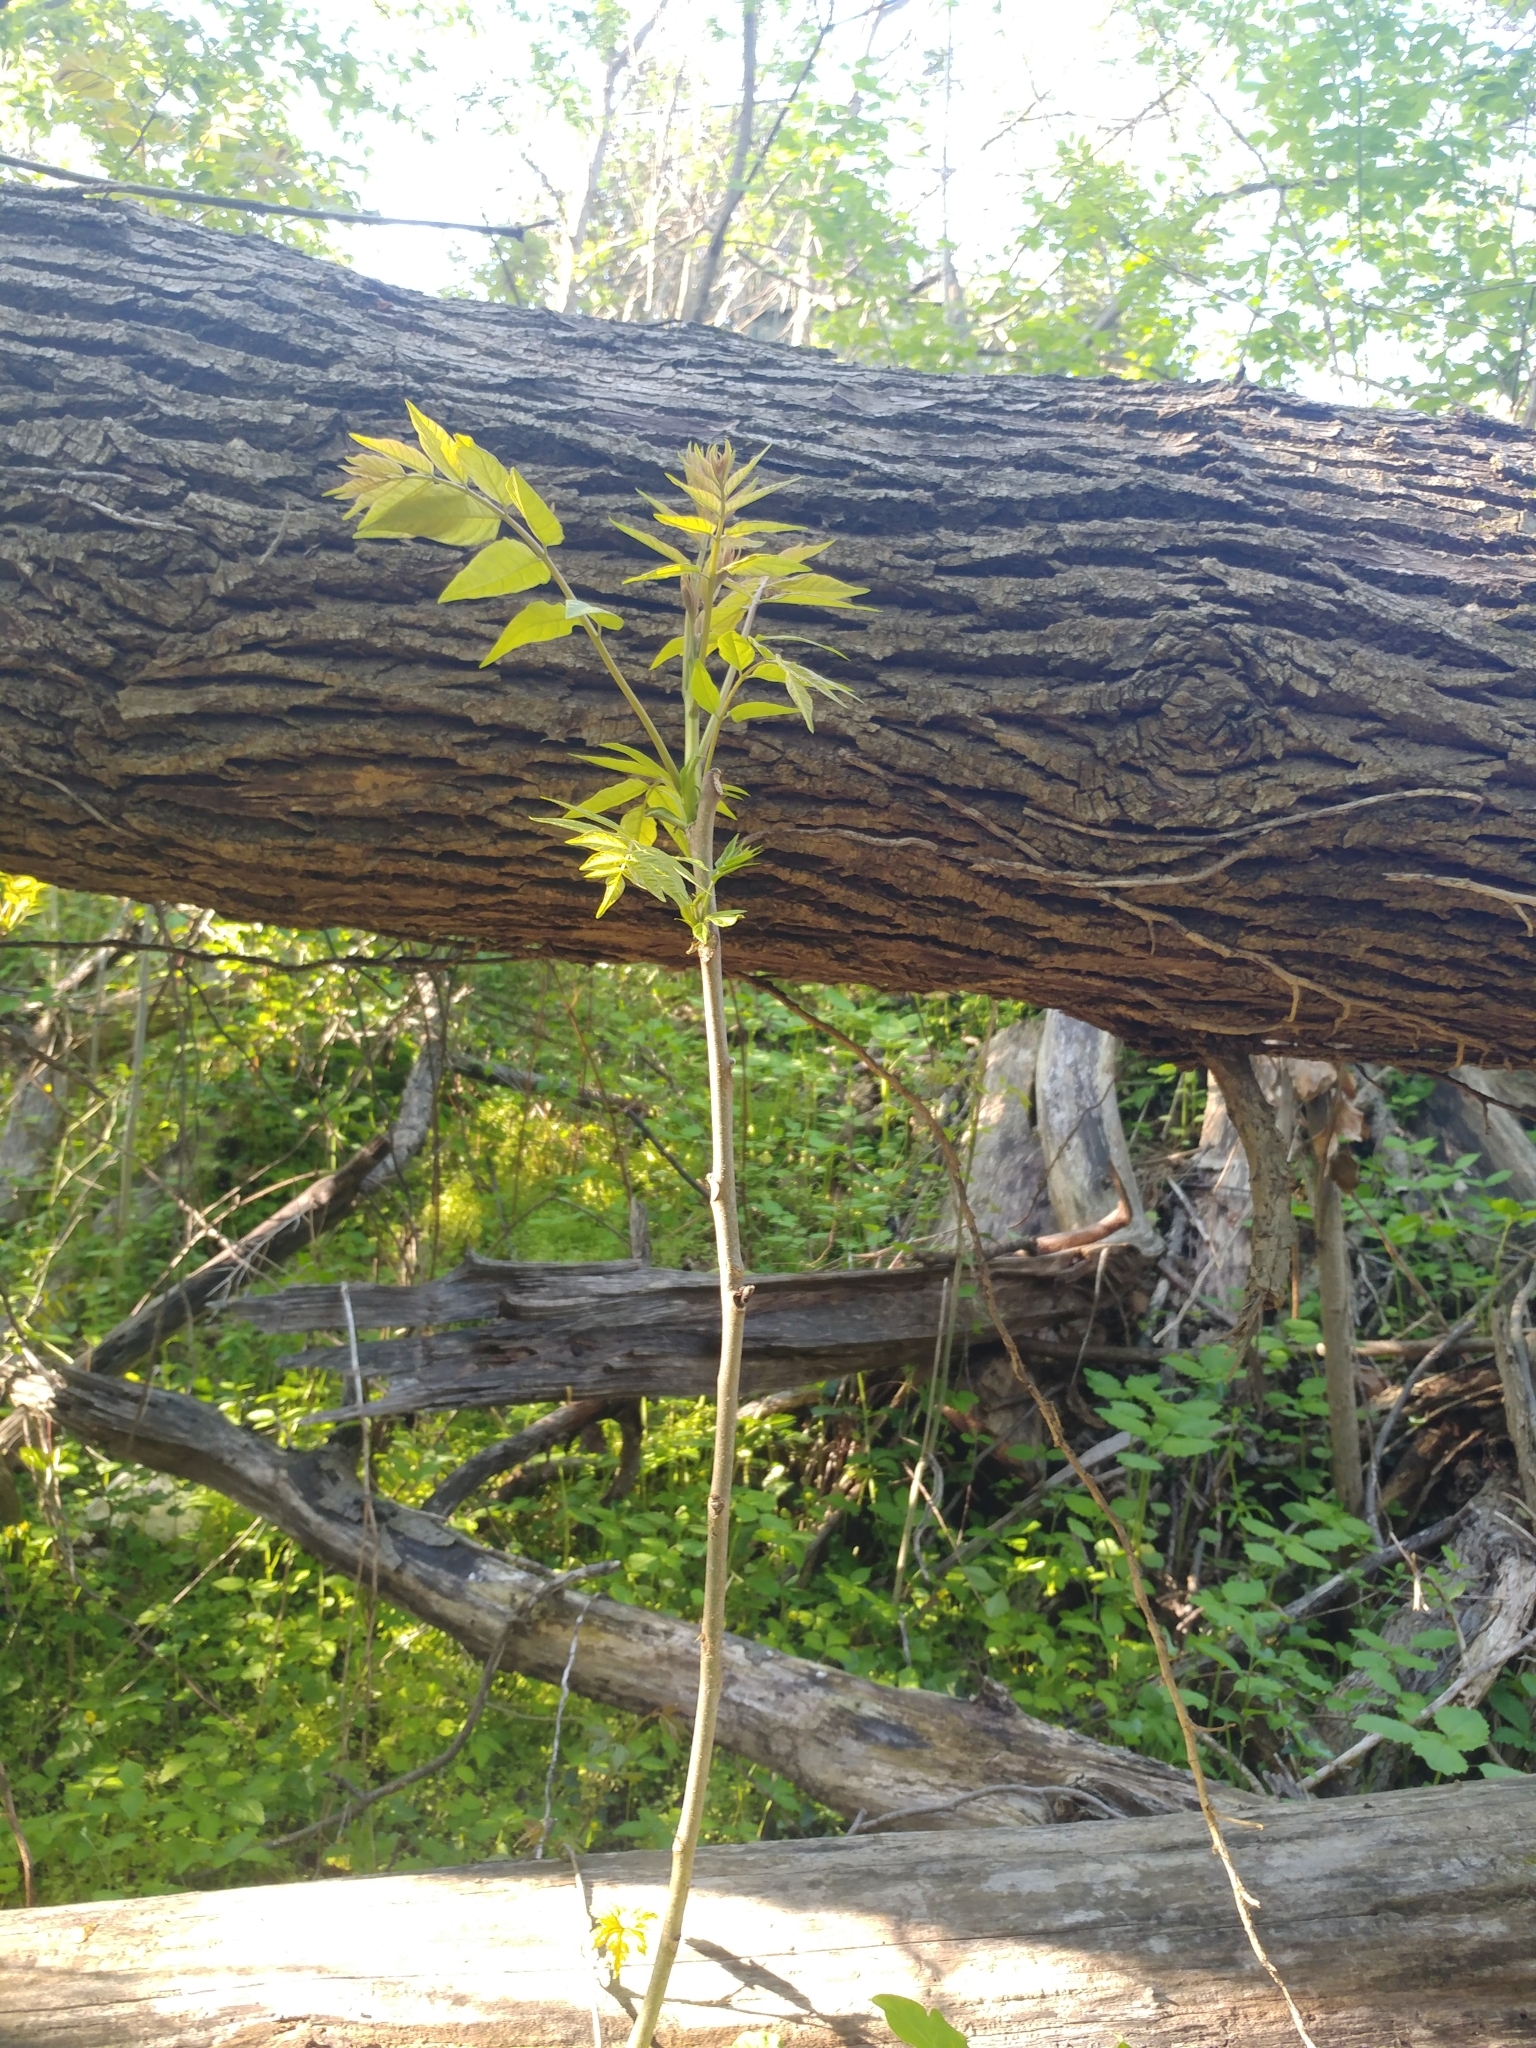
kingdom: Plantae
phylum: Tracheophyta
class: Magnoliopsida
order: Sapindales
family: Simaroubaceae
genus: Ailanthus
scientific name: Ailanthus altissima
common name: Tree-of-heaven
